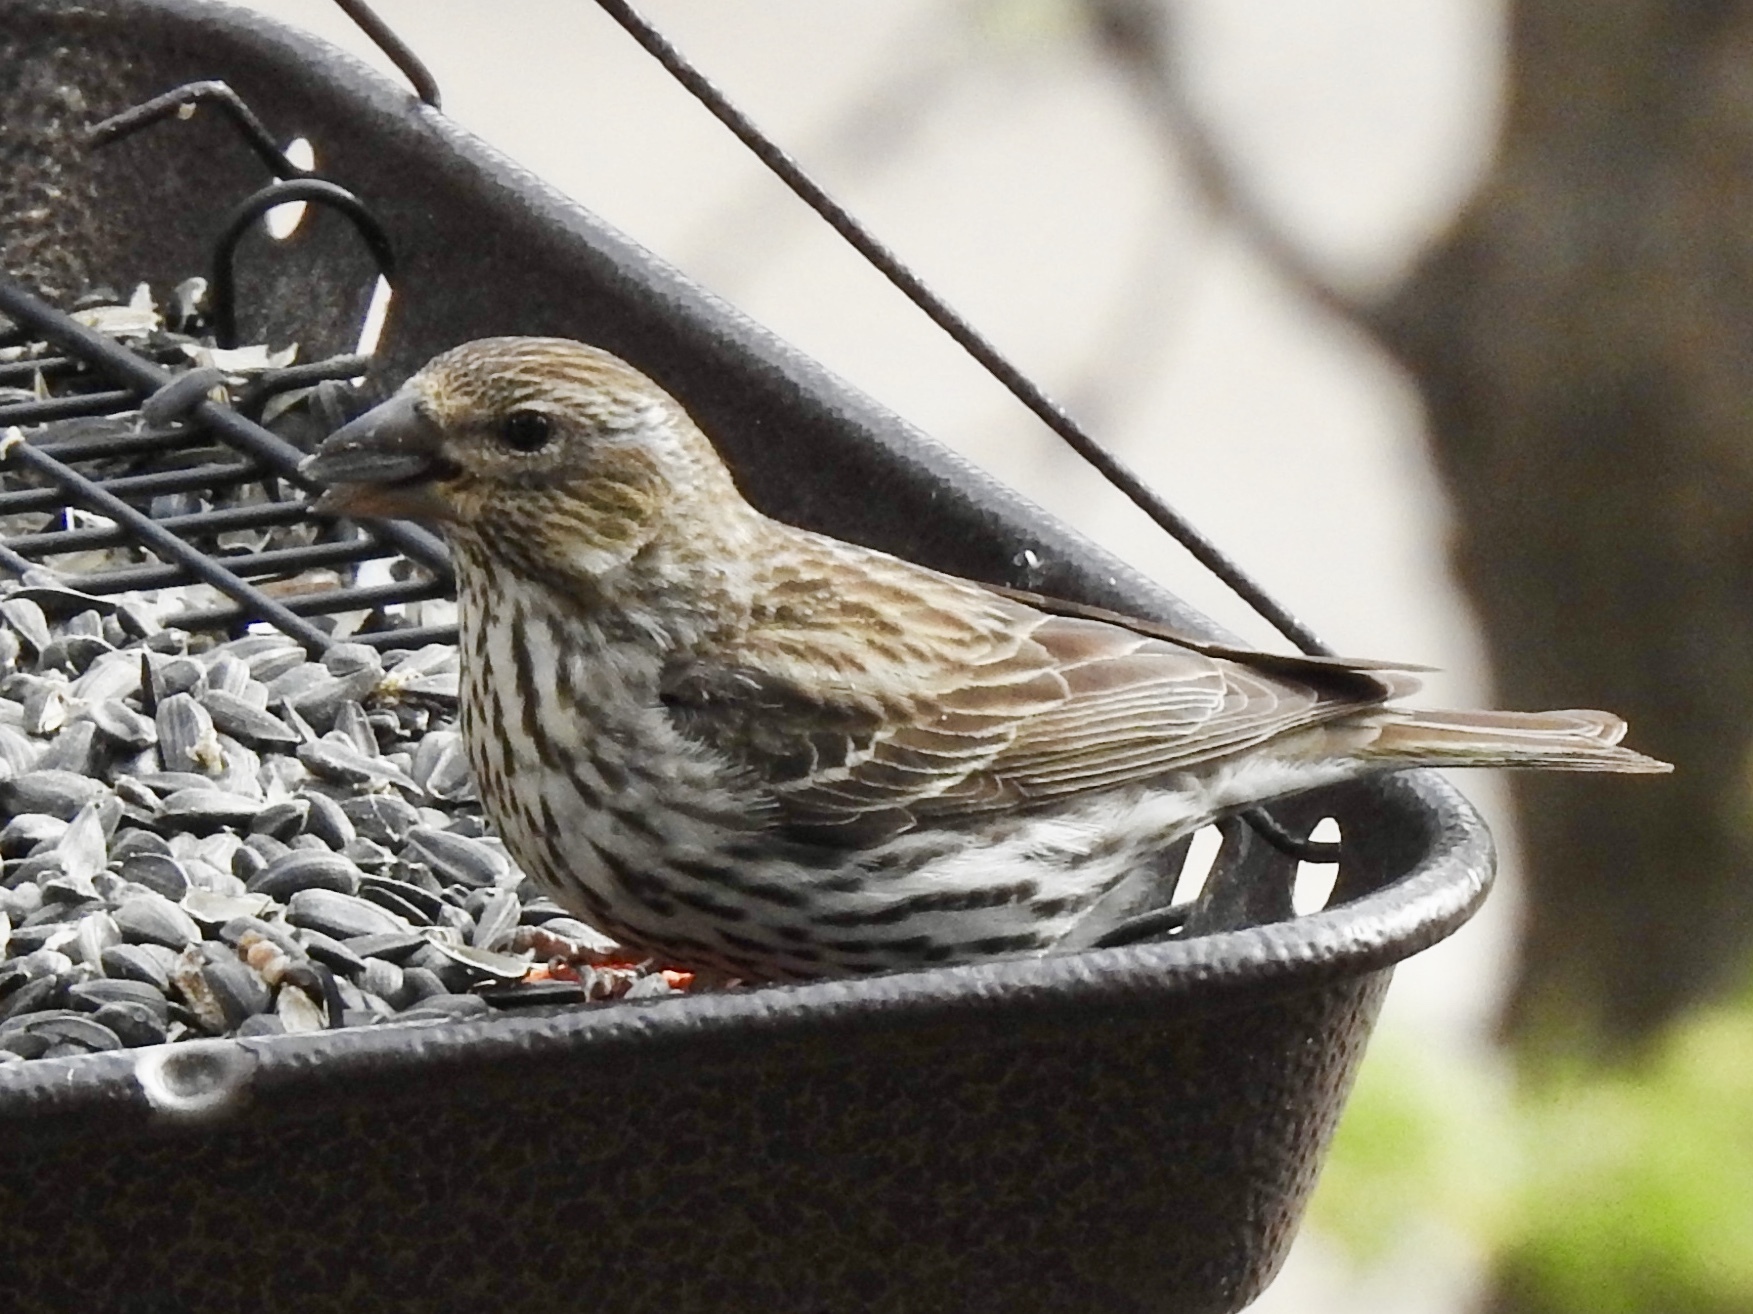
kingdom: Animalia
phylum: Chordata
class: Aves
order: Passeriformes
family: Fringillidae
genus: Haemorhous
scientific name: Haemorhous cassinii
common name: Cassin's finch
